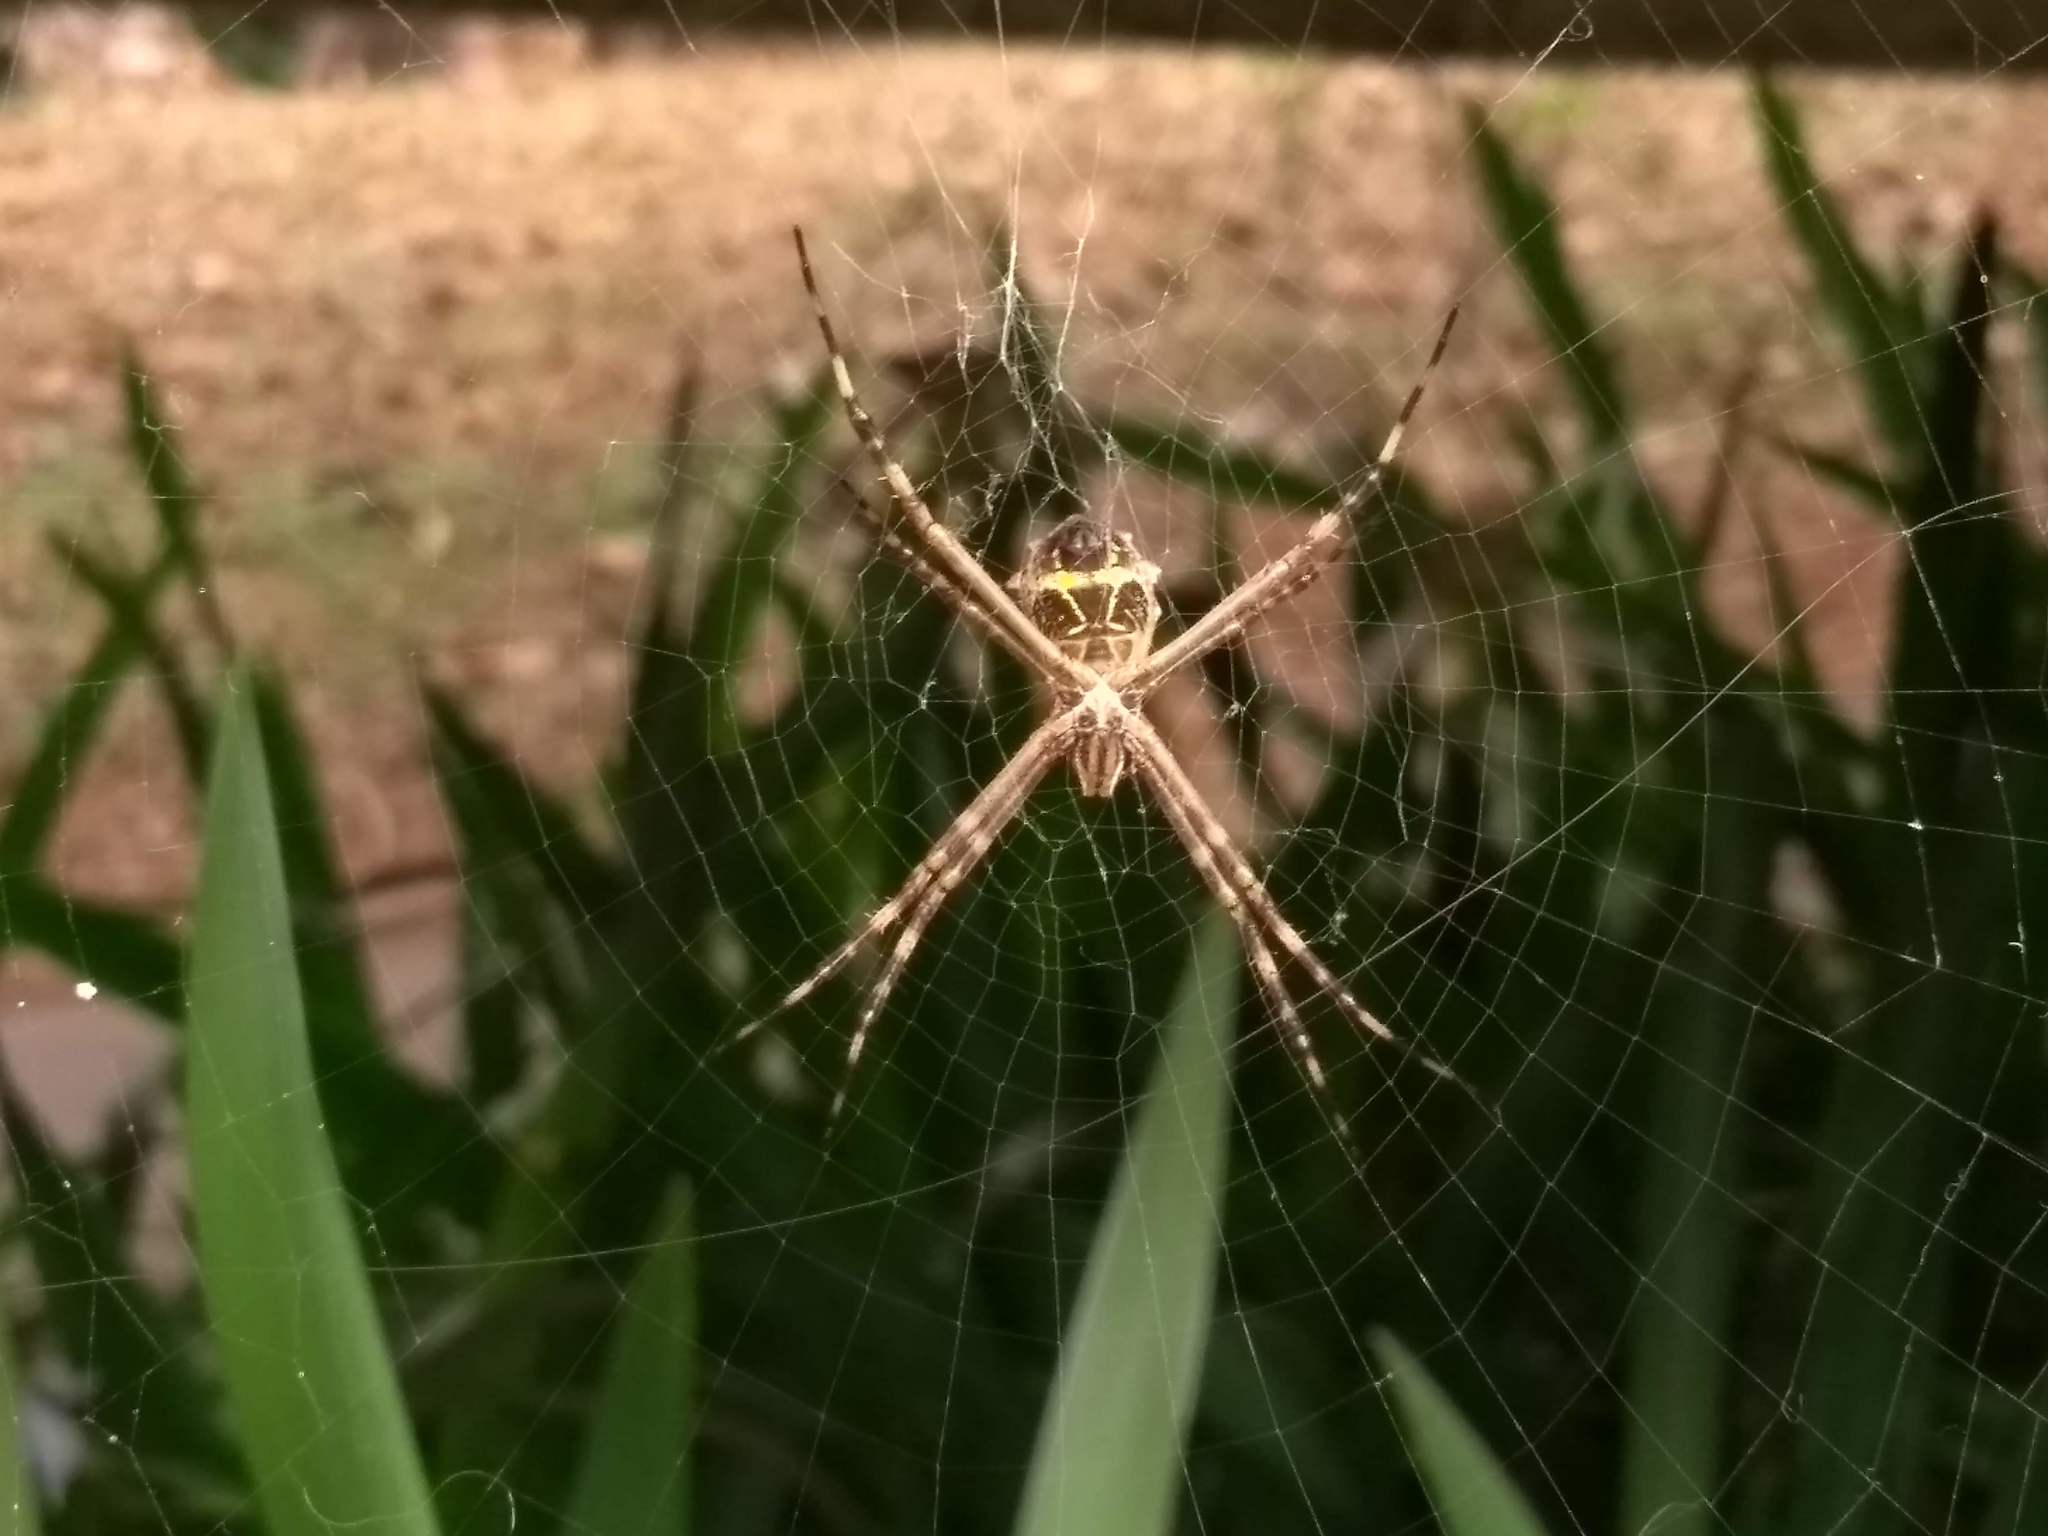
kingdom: Animalia
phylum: Arthropoda
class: Arachnida
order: Araneae
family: Araneidae
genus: Argiope
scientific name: Argiope argentata
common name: Orb weavers
